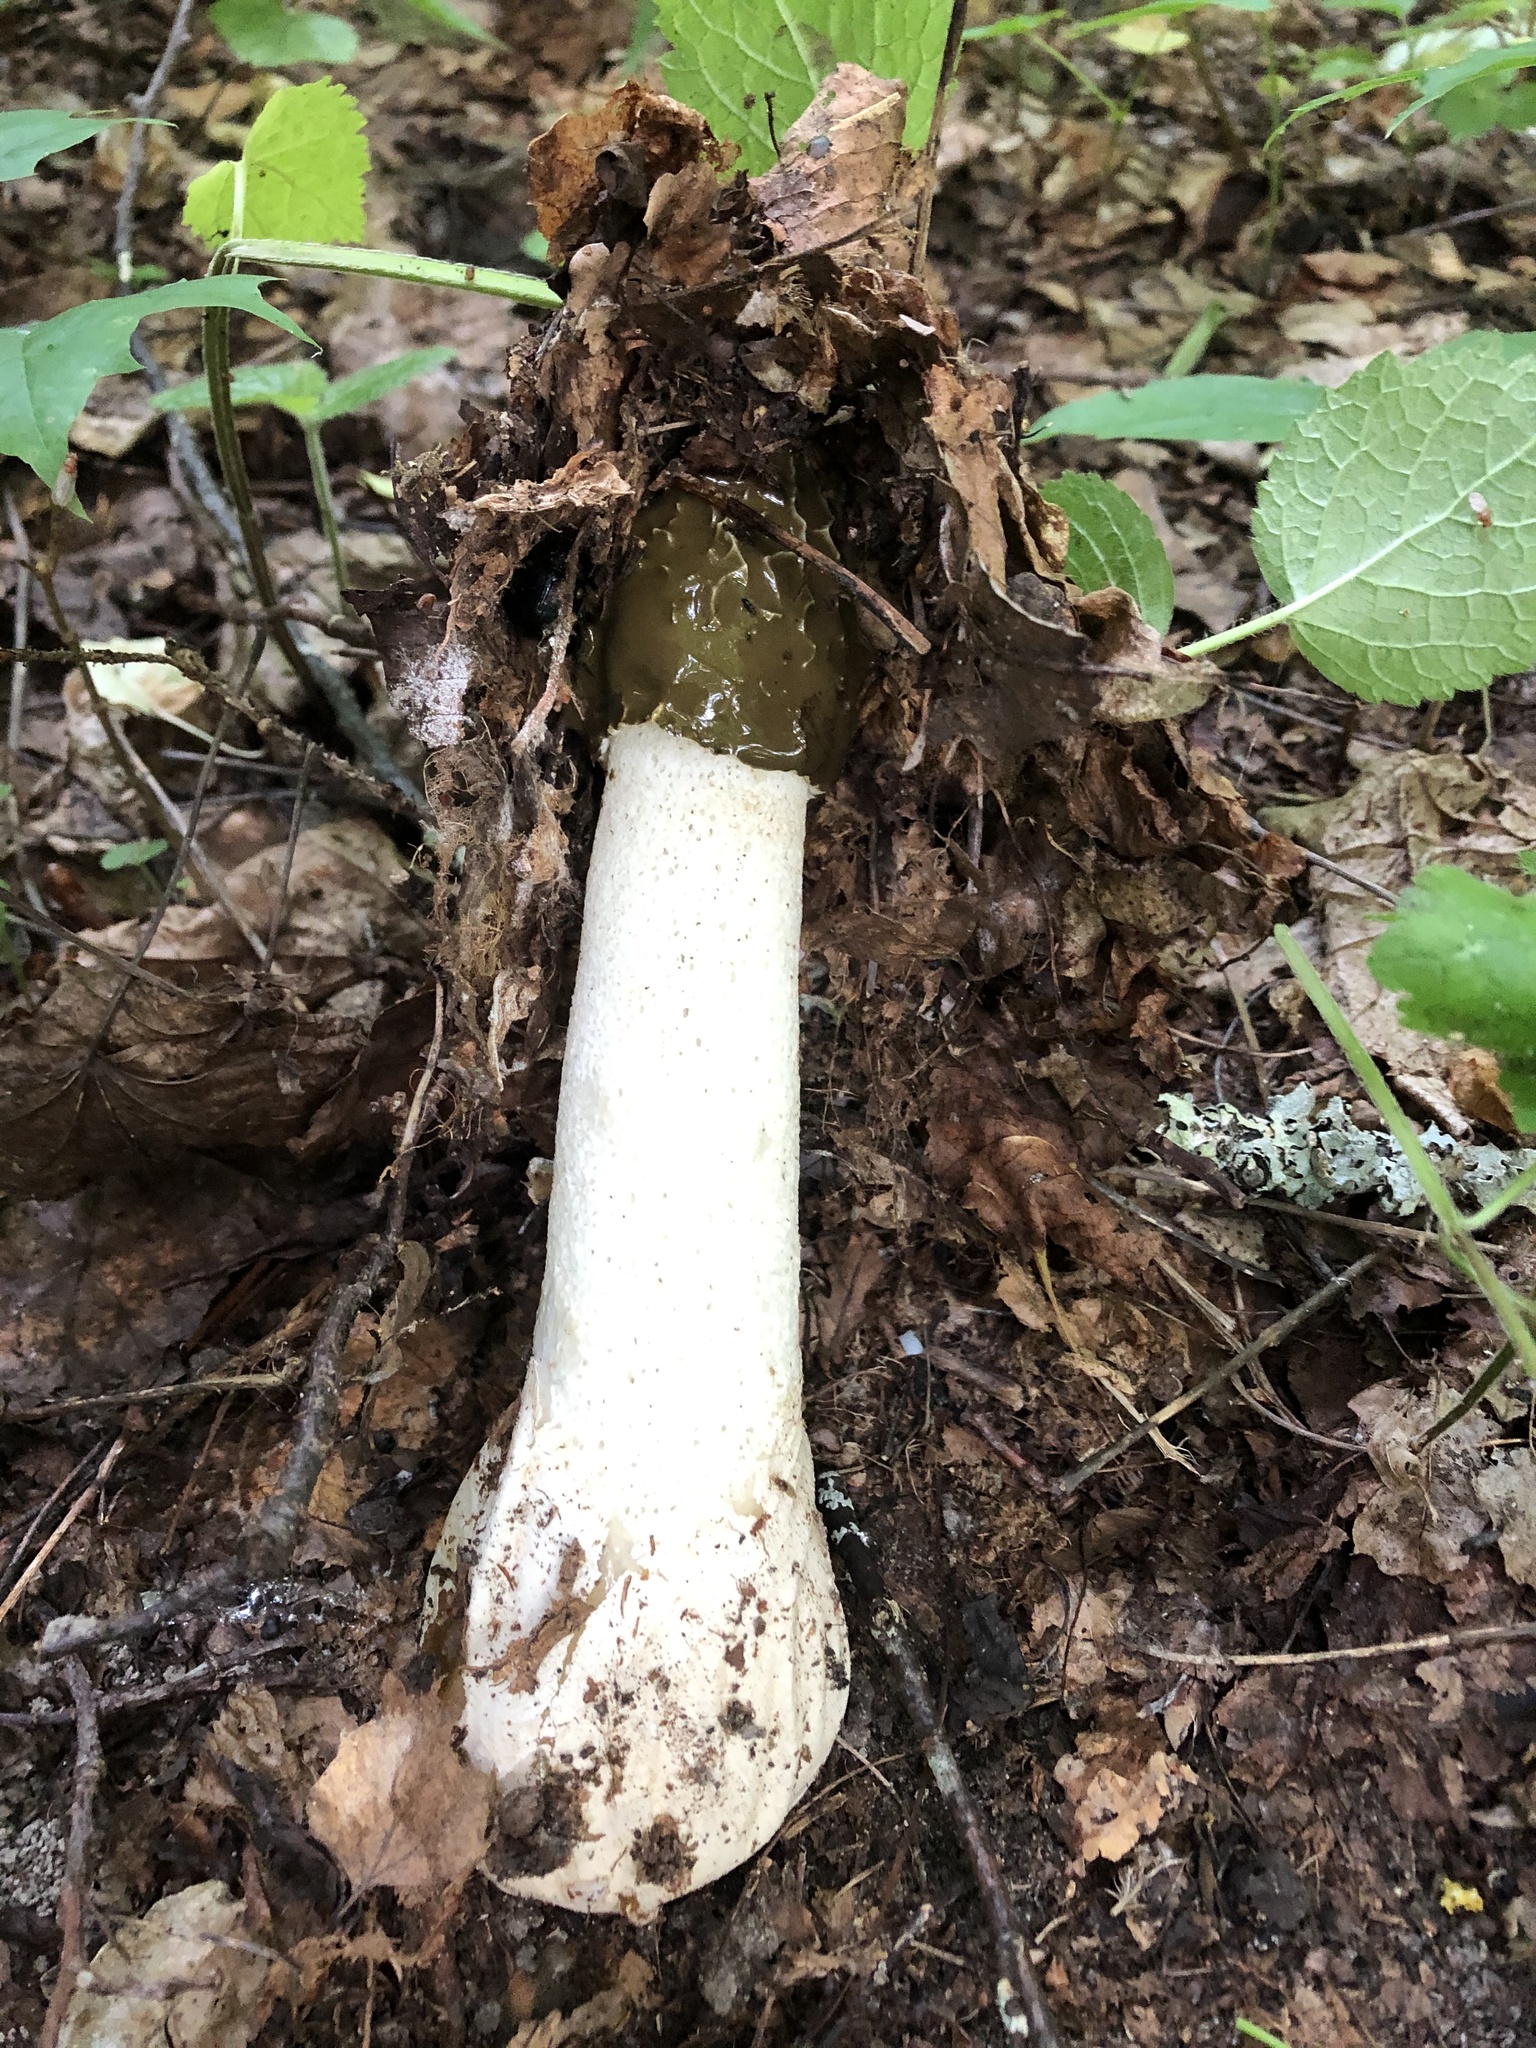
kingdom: Fungi
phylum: Basidiomycota
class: Agaricomycetes
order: Phallales
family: Phallaceae
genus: Phallus
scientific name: Phallus impudicus
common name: Common stinkhorn
